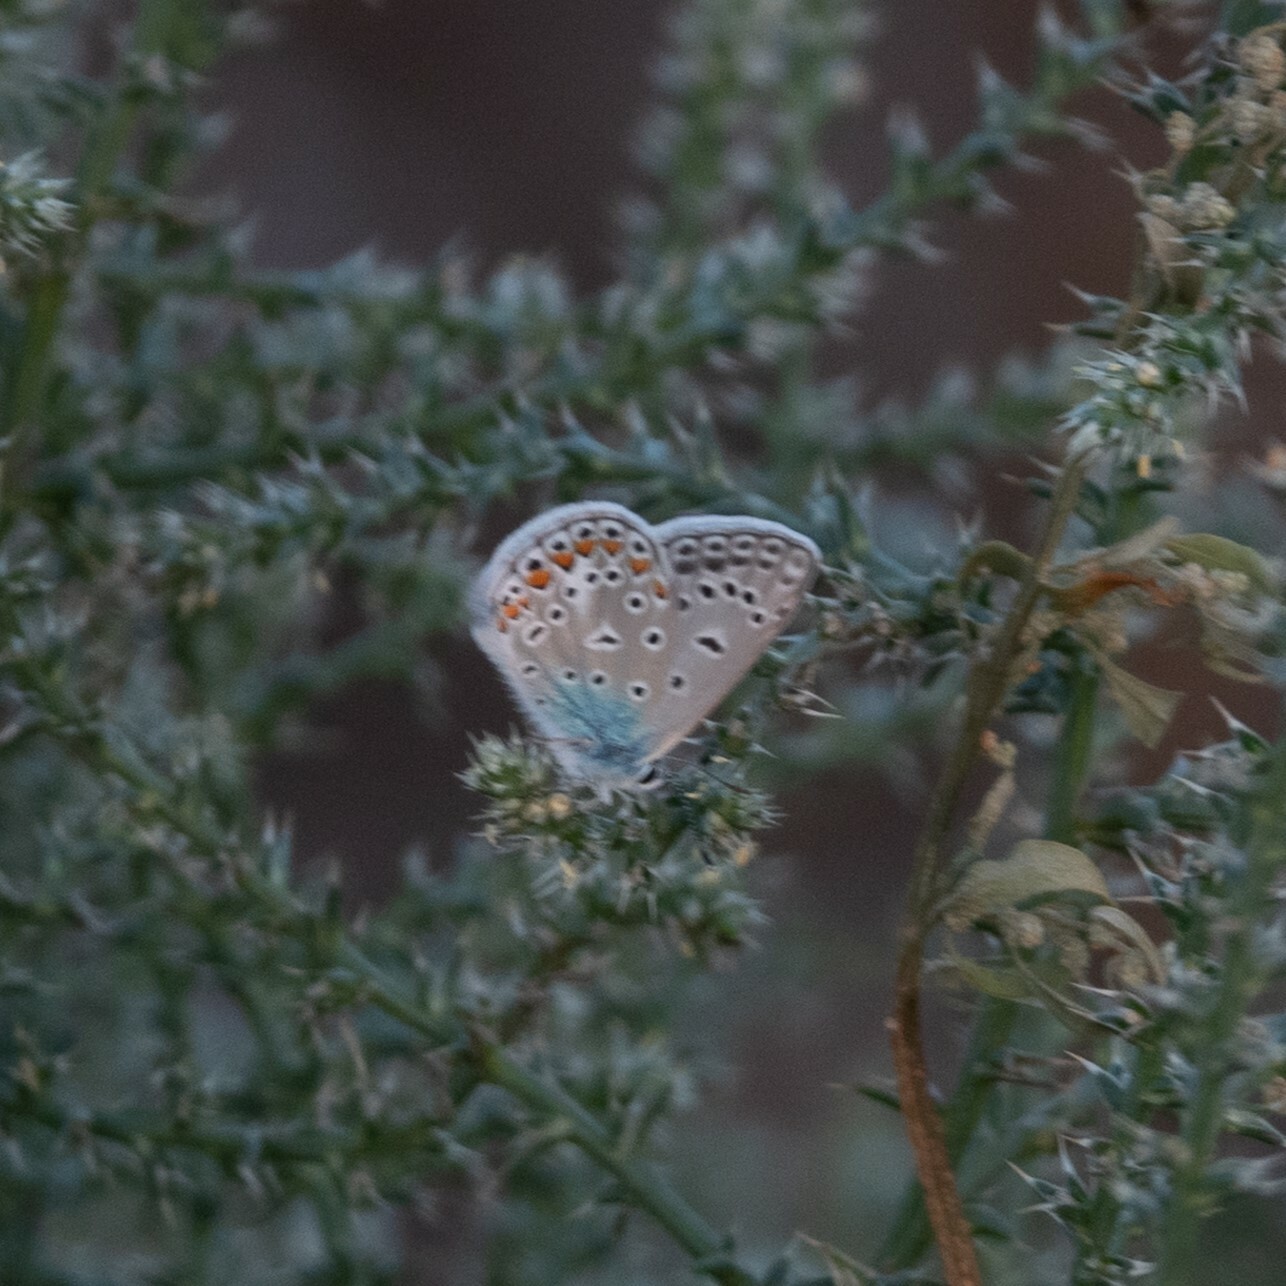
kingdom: Animalia
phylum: Arthropoda
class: Insecta
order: Lepidoptera
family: Lycaenidae
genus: Polyommatus
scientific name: Polyommatus icarus
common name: Common blue
